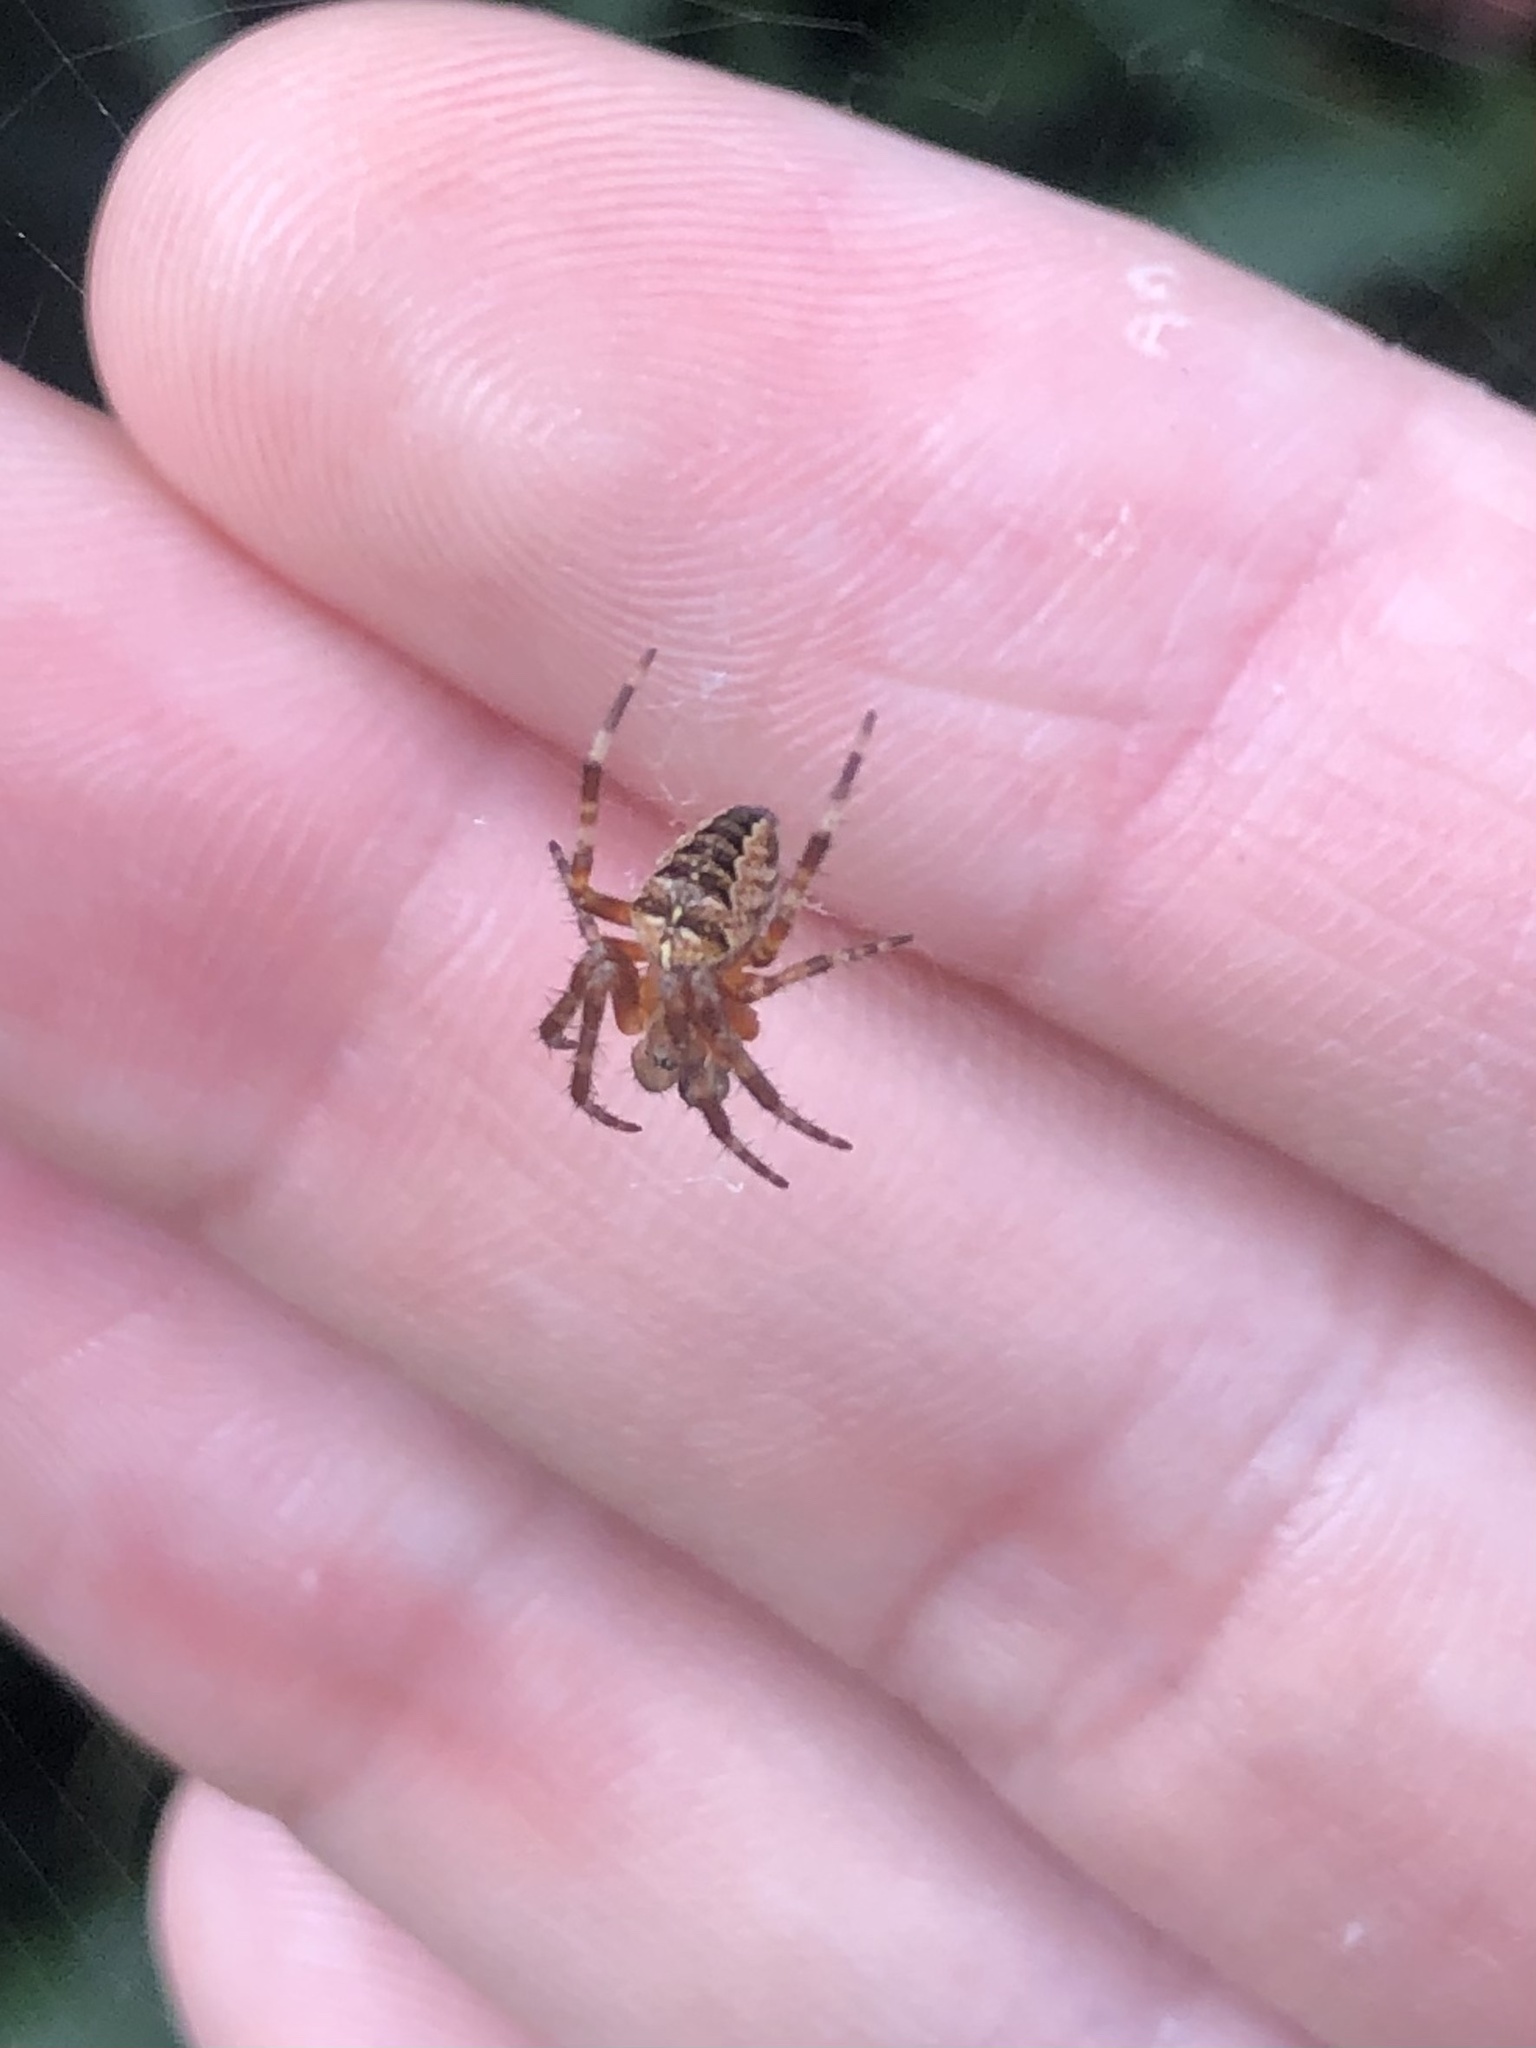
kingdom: Animalia
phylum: Arthropoda
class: Arachnida
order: Araneae
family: Araneidae
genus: Araneus
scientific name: Araneus diadematus
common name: Cross orbweaver
